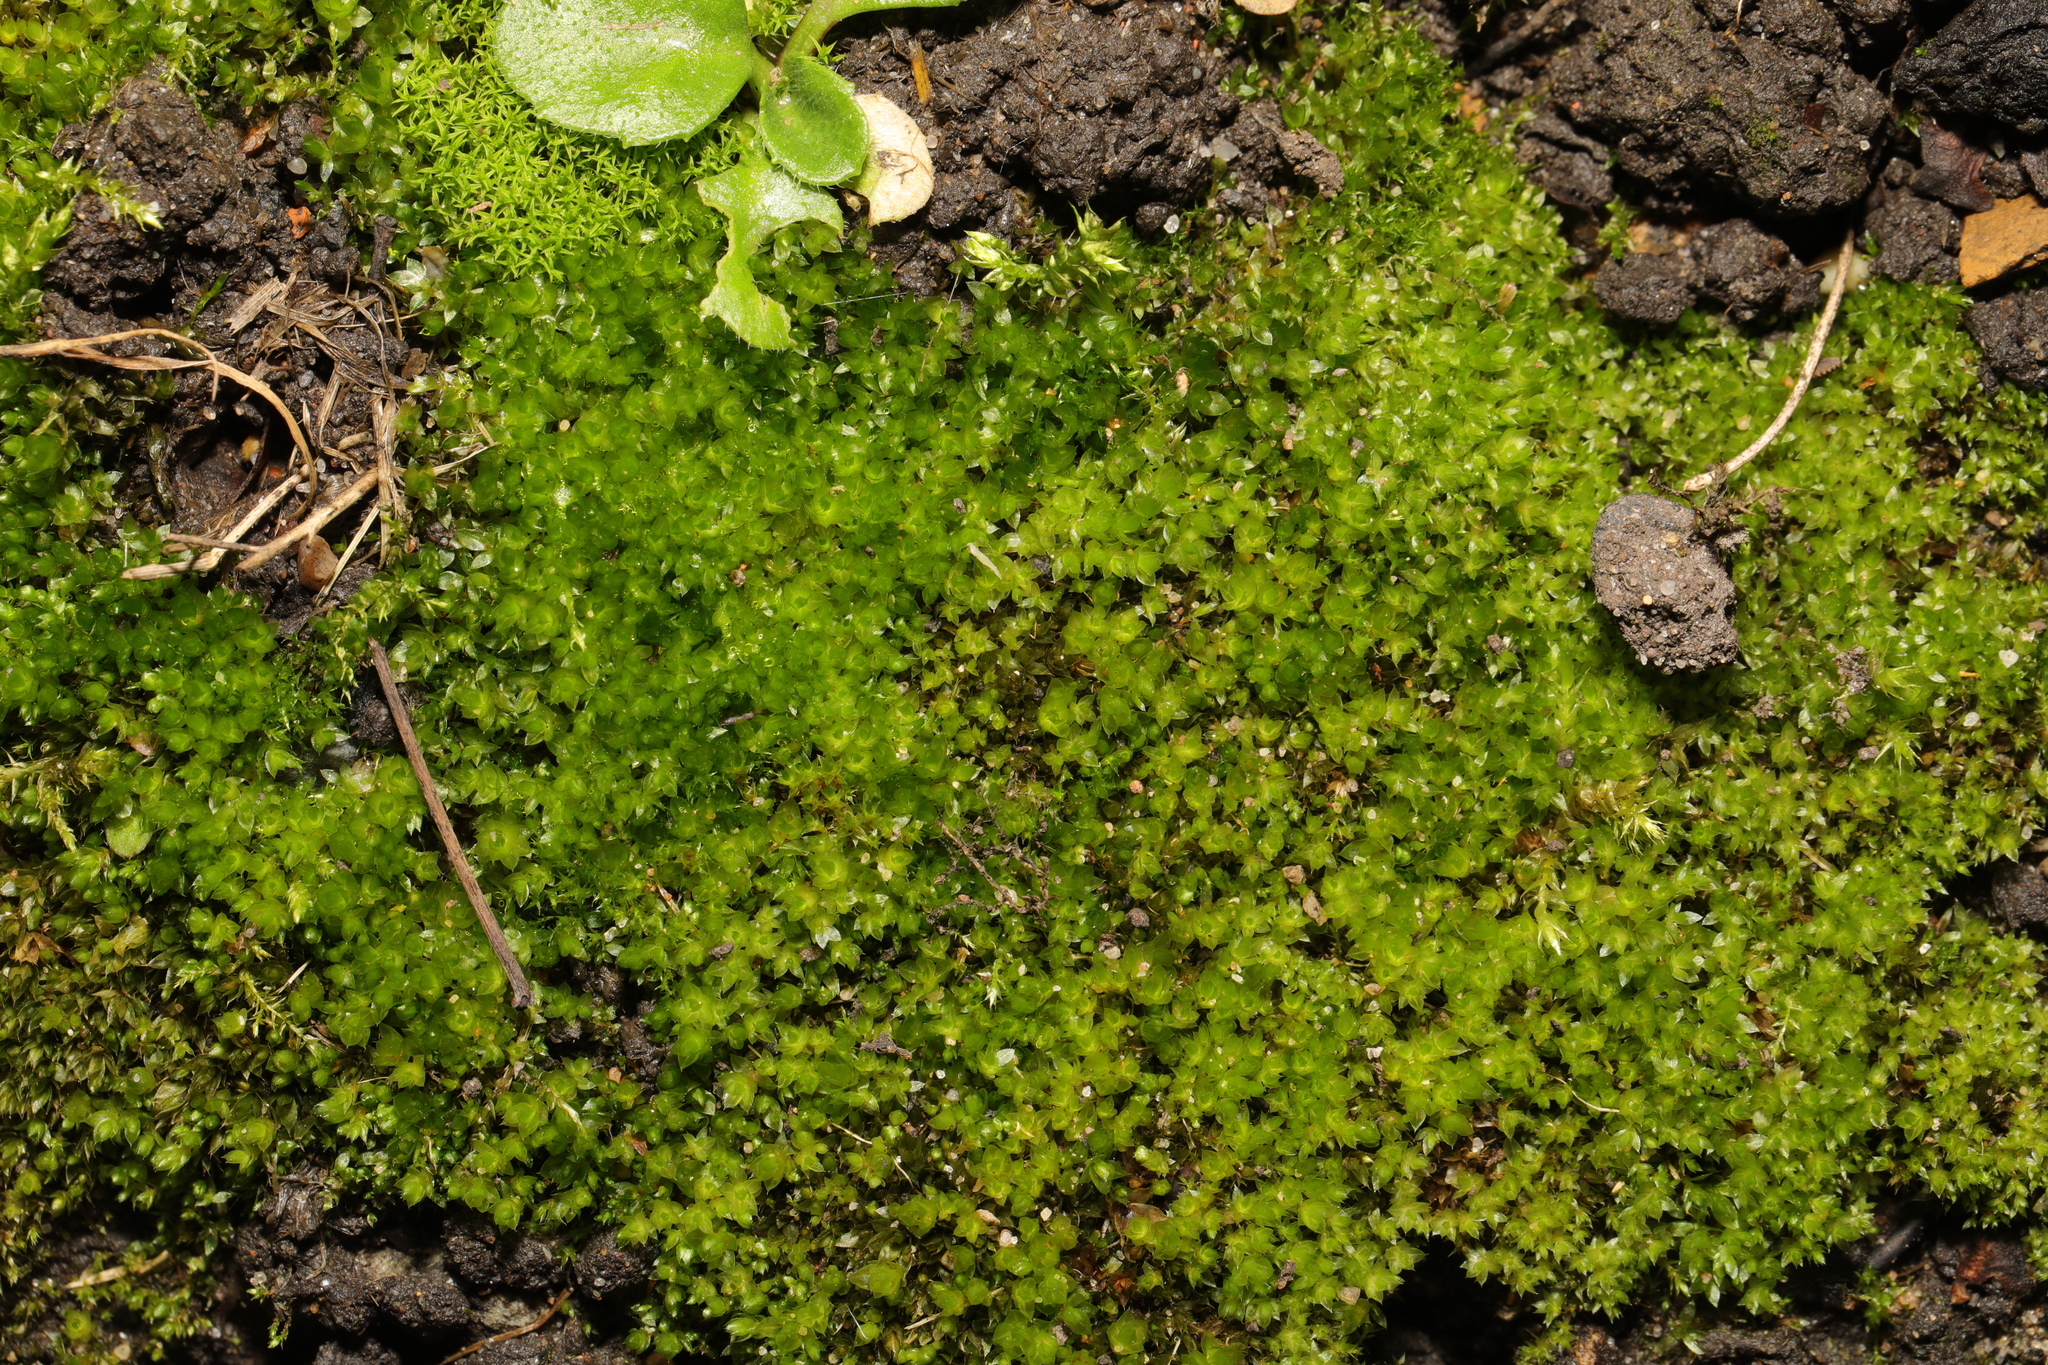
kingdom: Plantae
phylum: Bryophyta
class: Bryopsida
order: Bryales
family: Bryaceae
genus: Rosulabryum
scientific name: Rosulabryum capillare
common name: Capillary thread-moss
